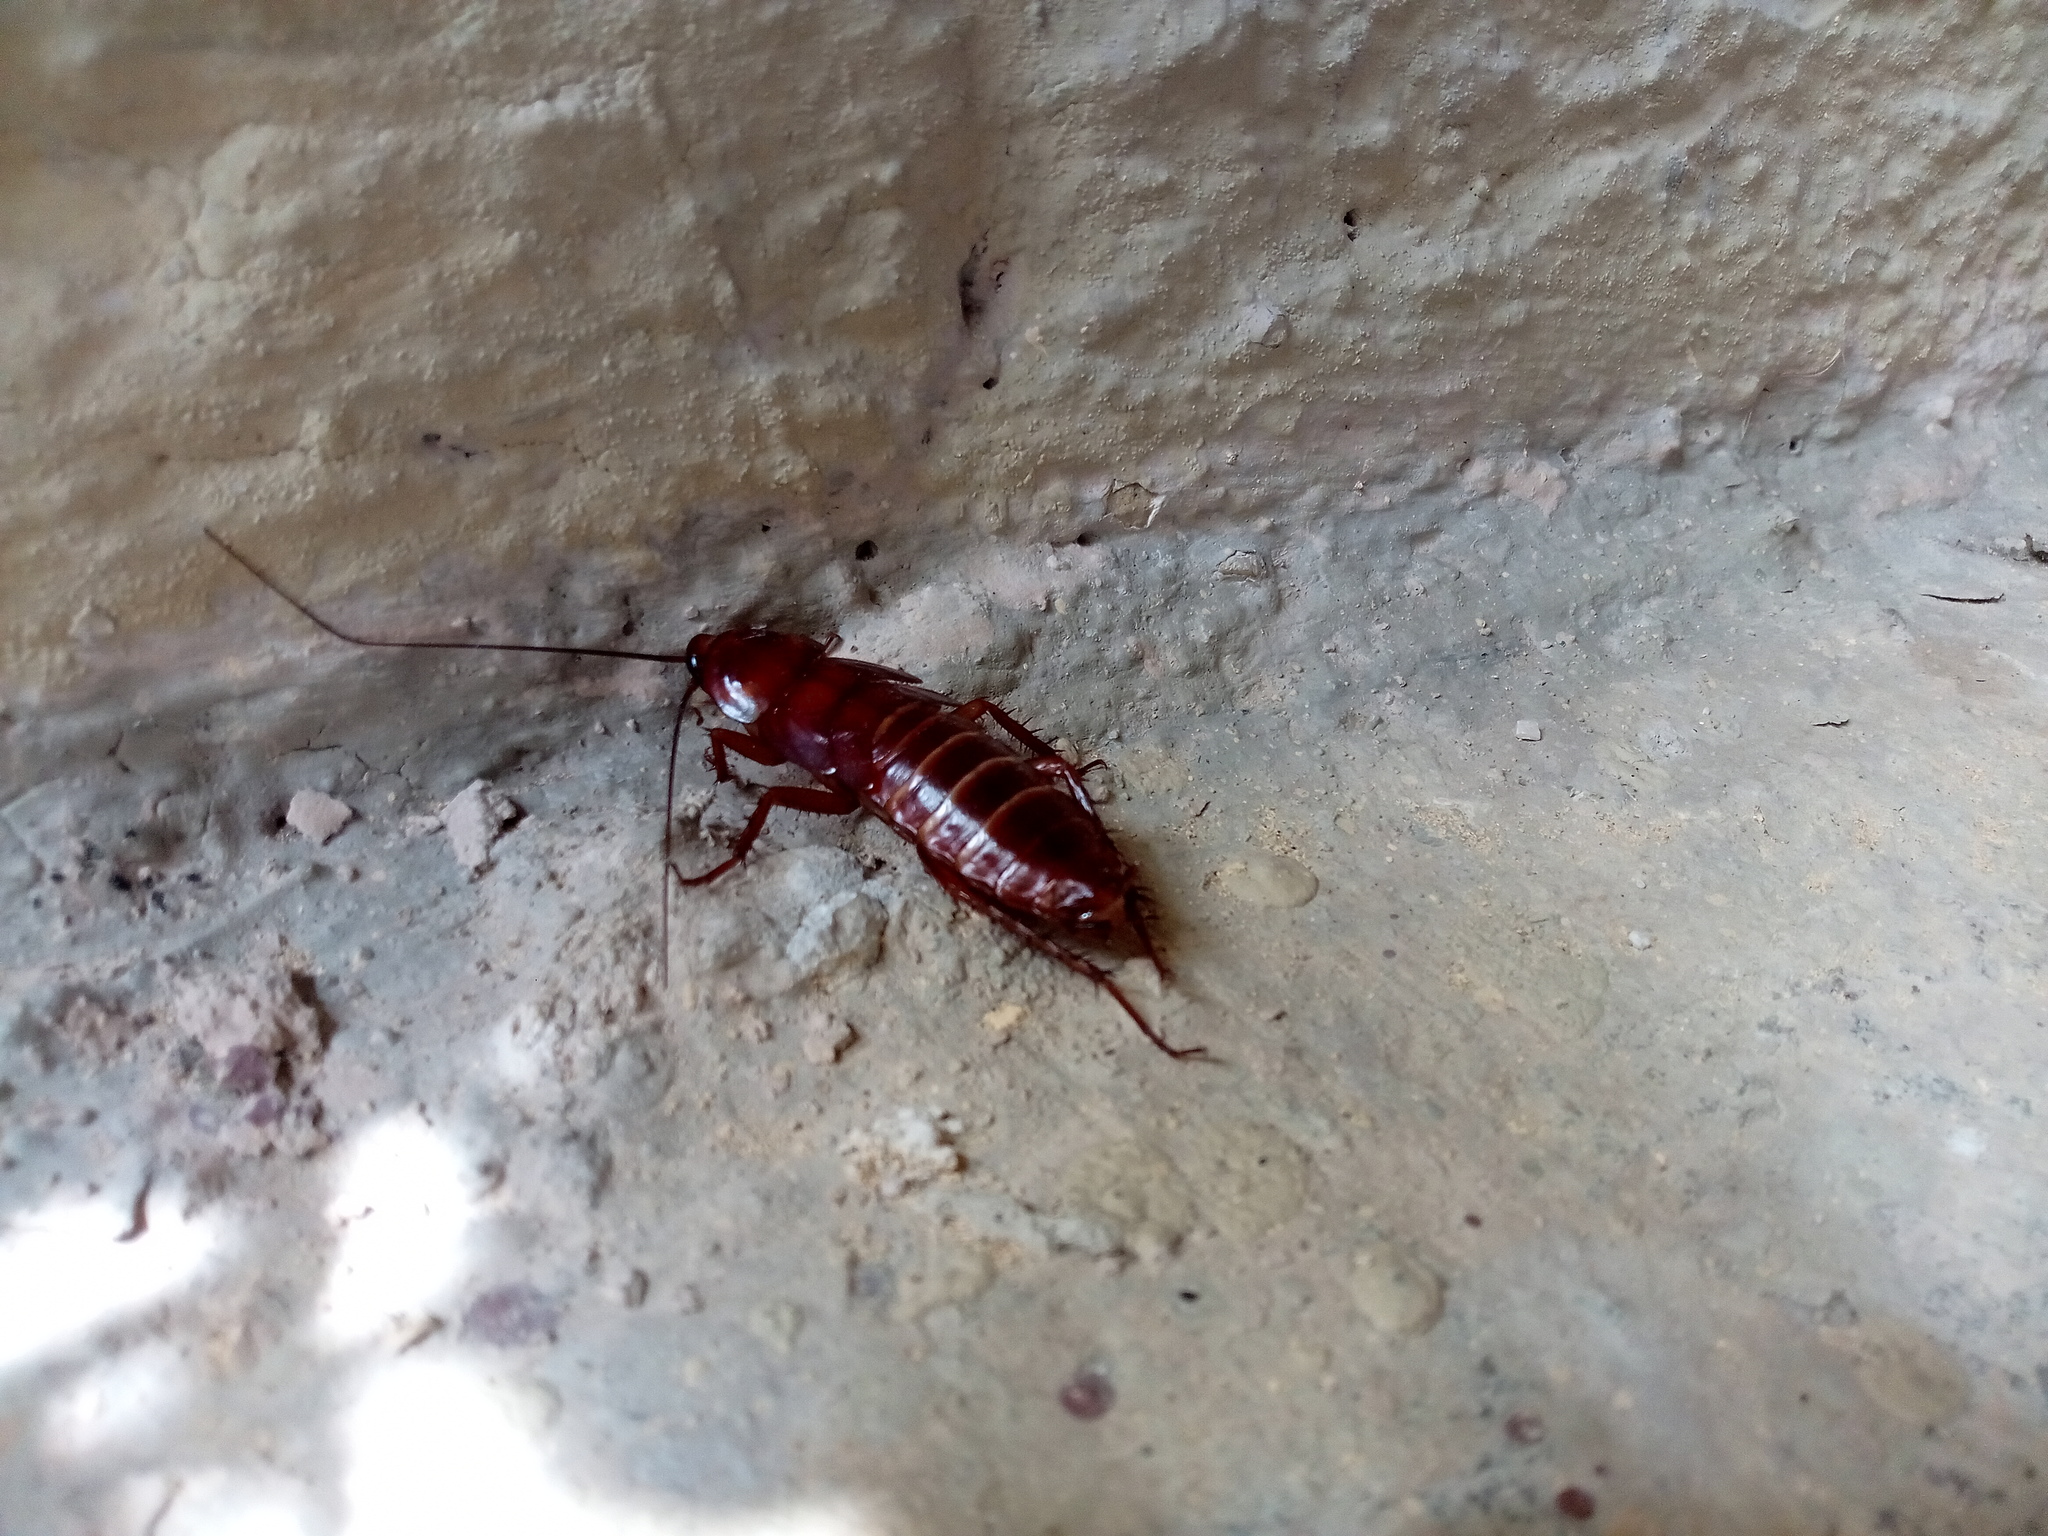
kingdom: Animalia
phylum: Arthropoda
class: Insecta
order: Blattodea
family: Blattidae
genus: Periplaneta
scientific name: Periplaneta
